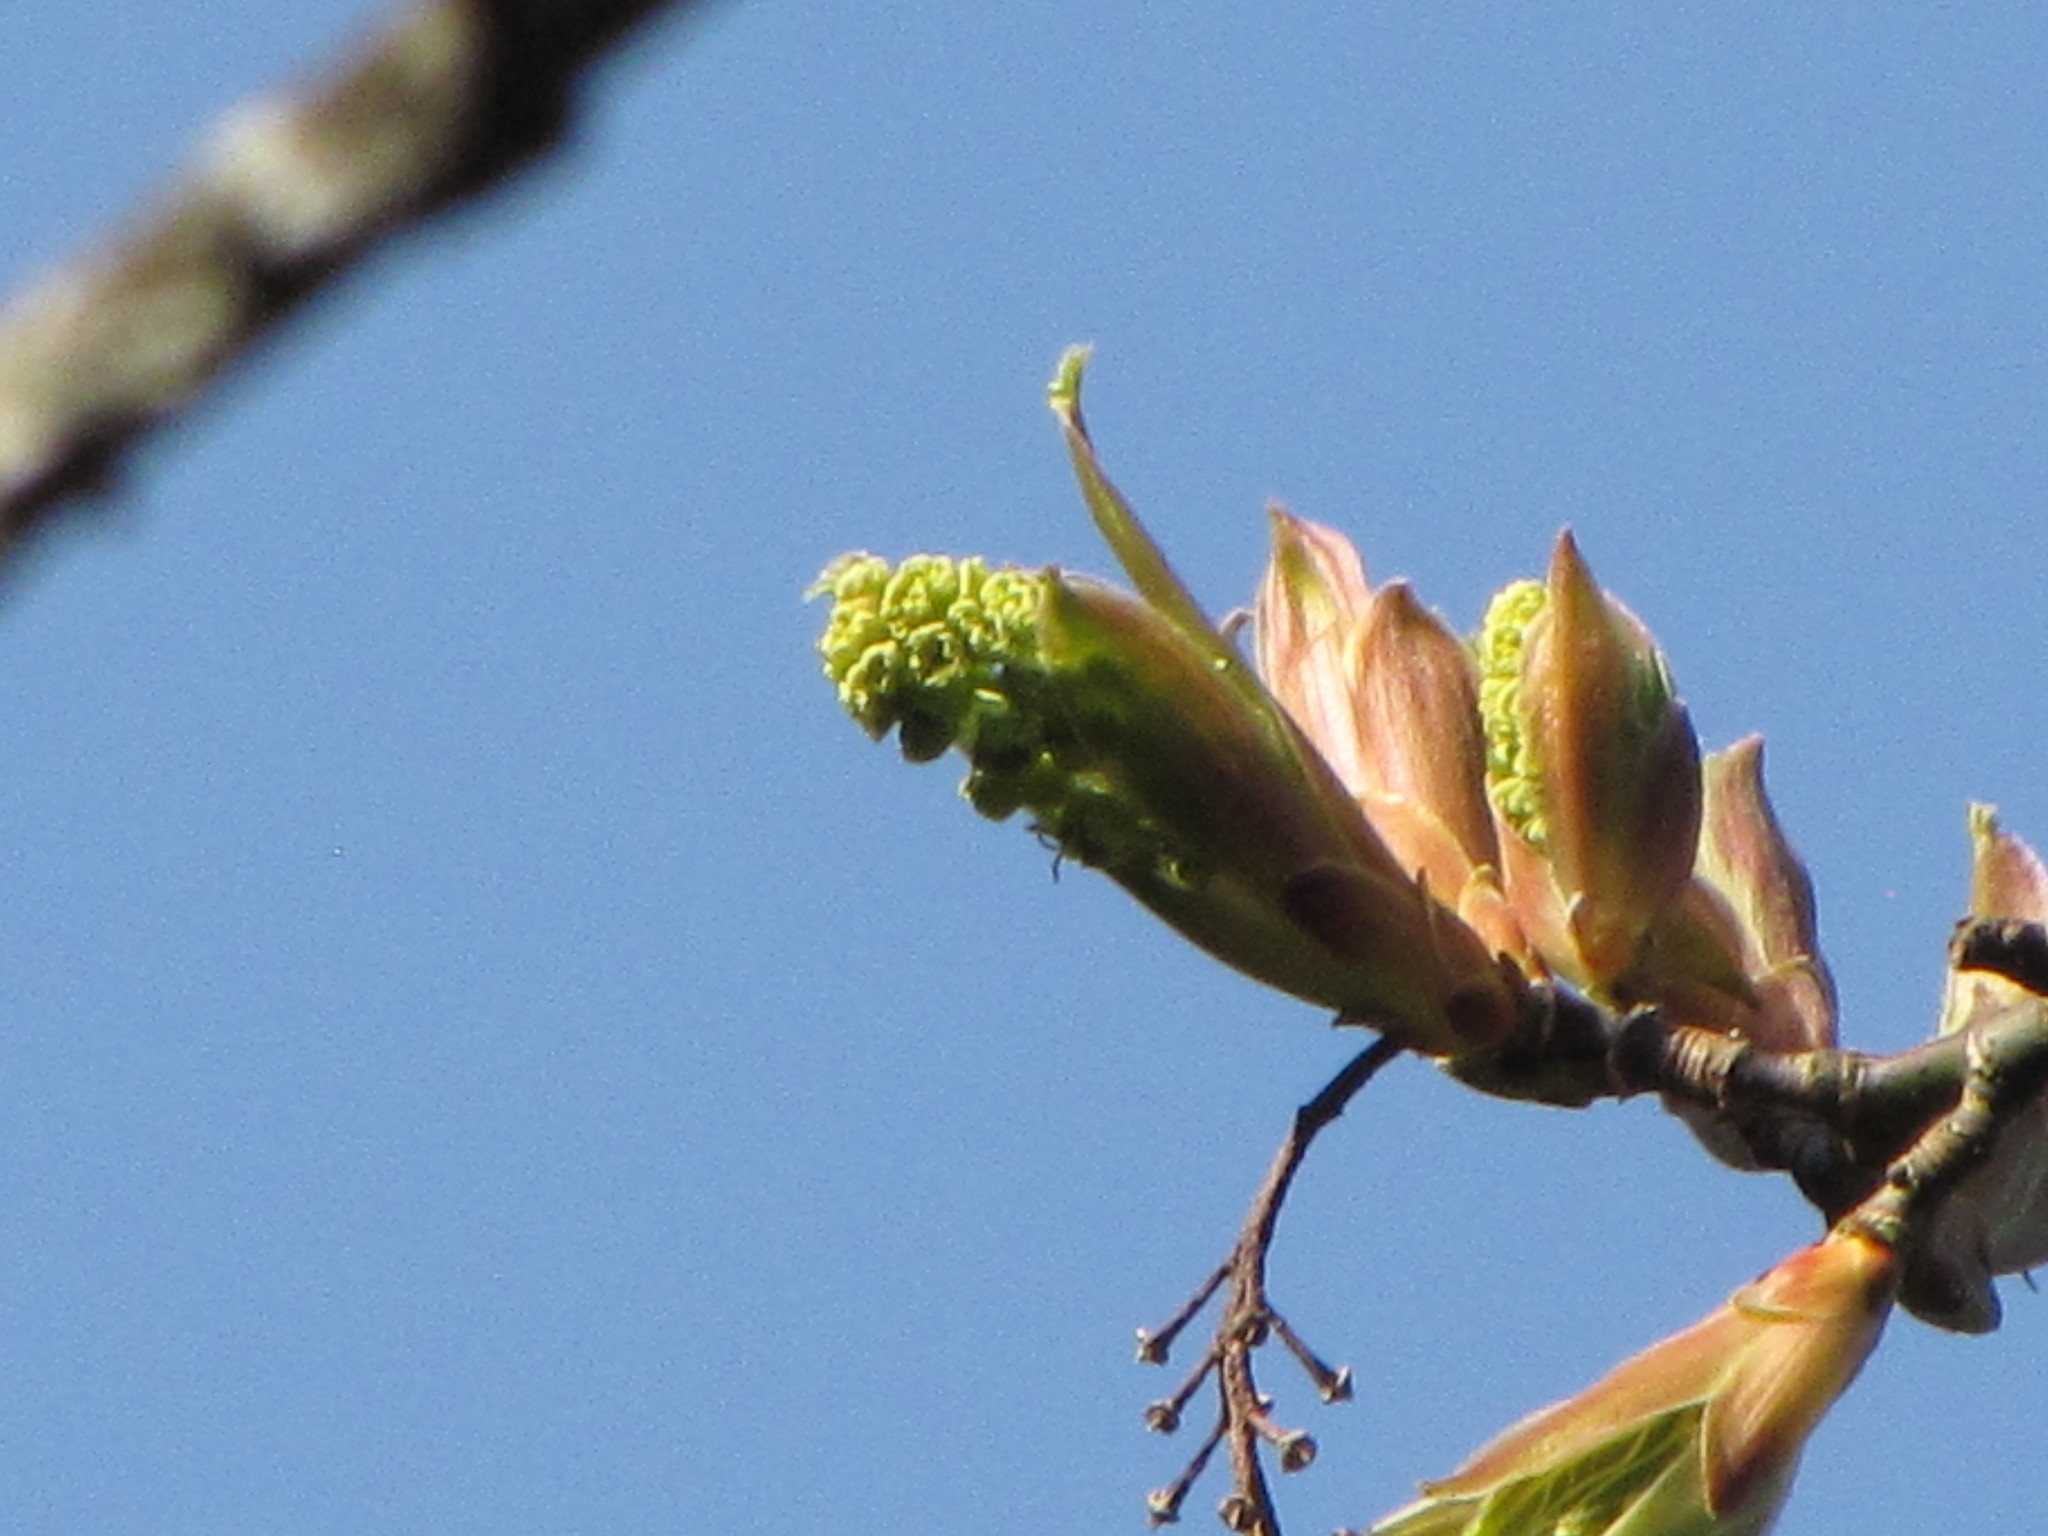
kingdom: Plantae
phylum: Tracheophyta
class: Magnoliopsida
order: Sapindales
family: Sapindaceae
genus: Acer
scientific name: Acer macrophyllum
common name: Oregon maple
